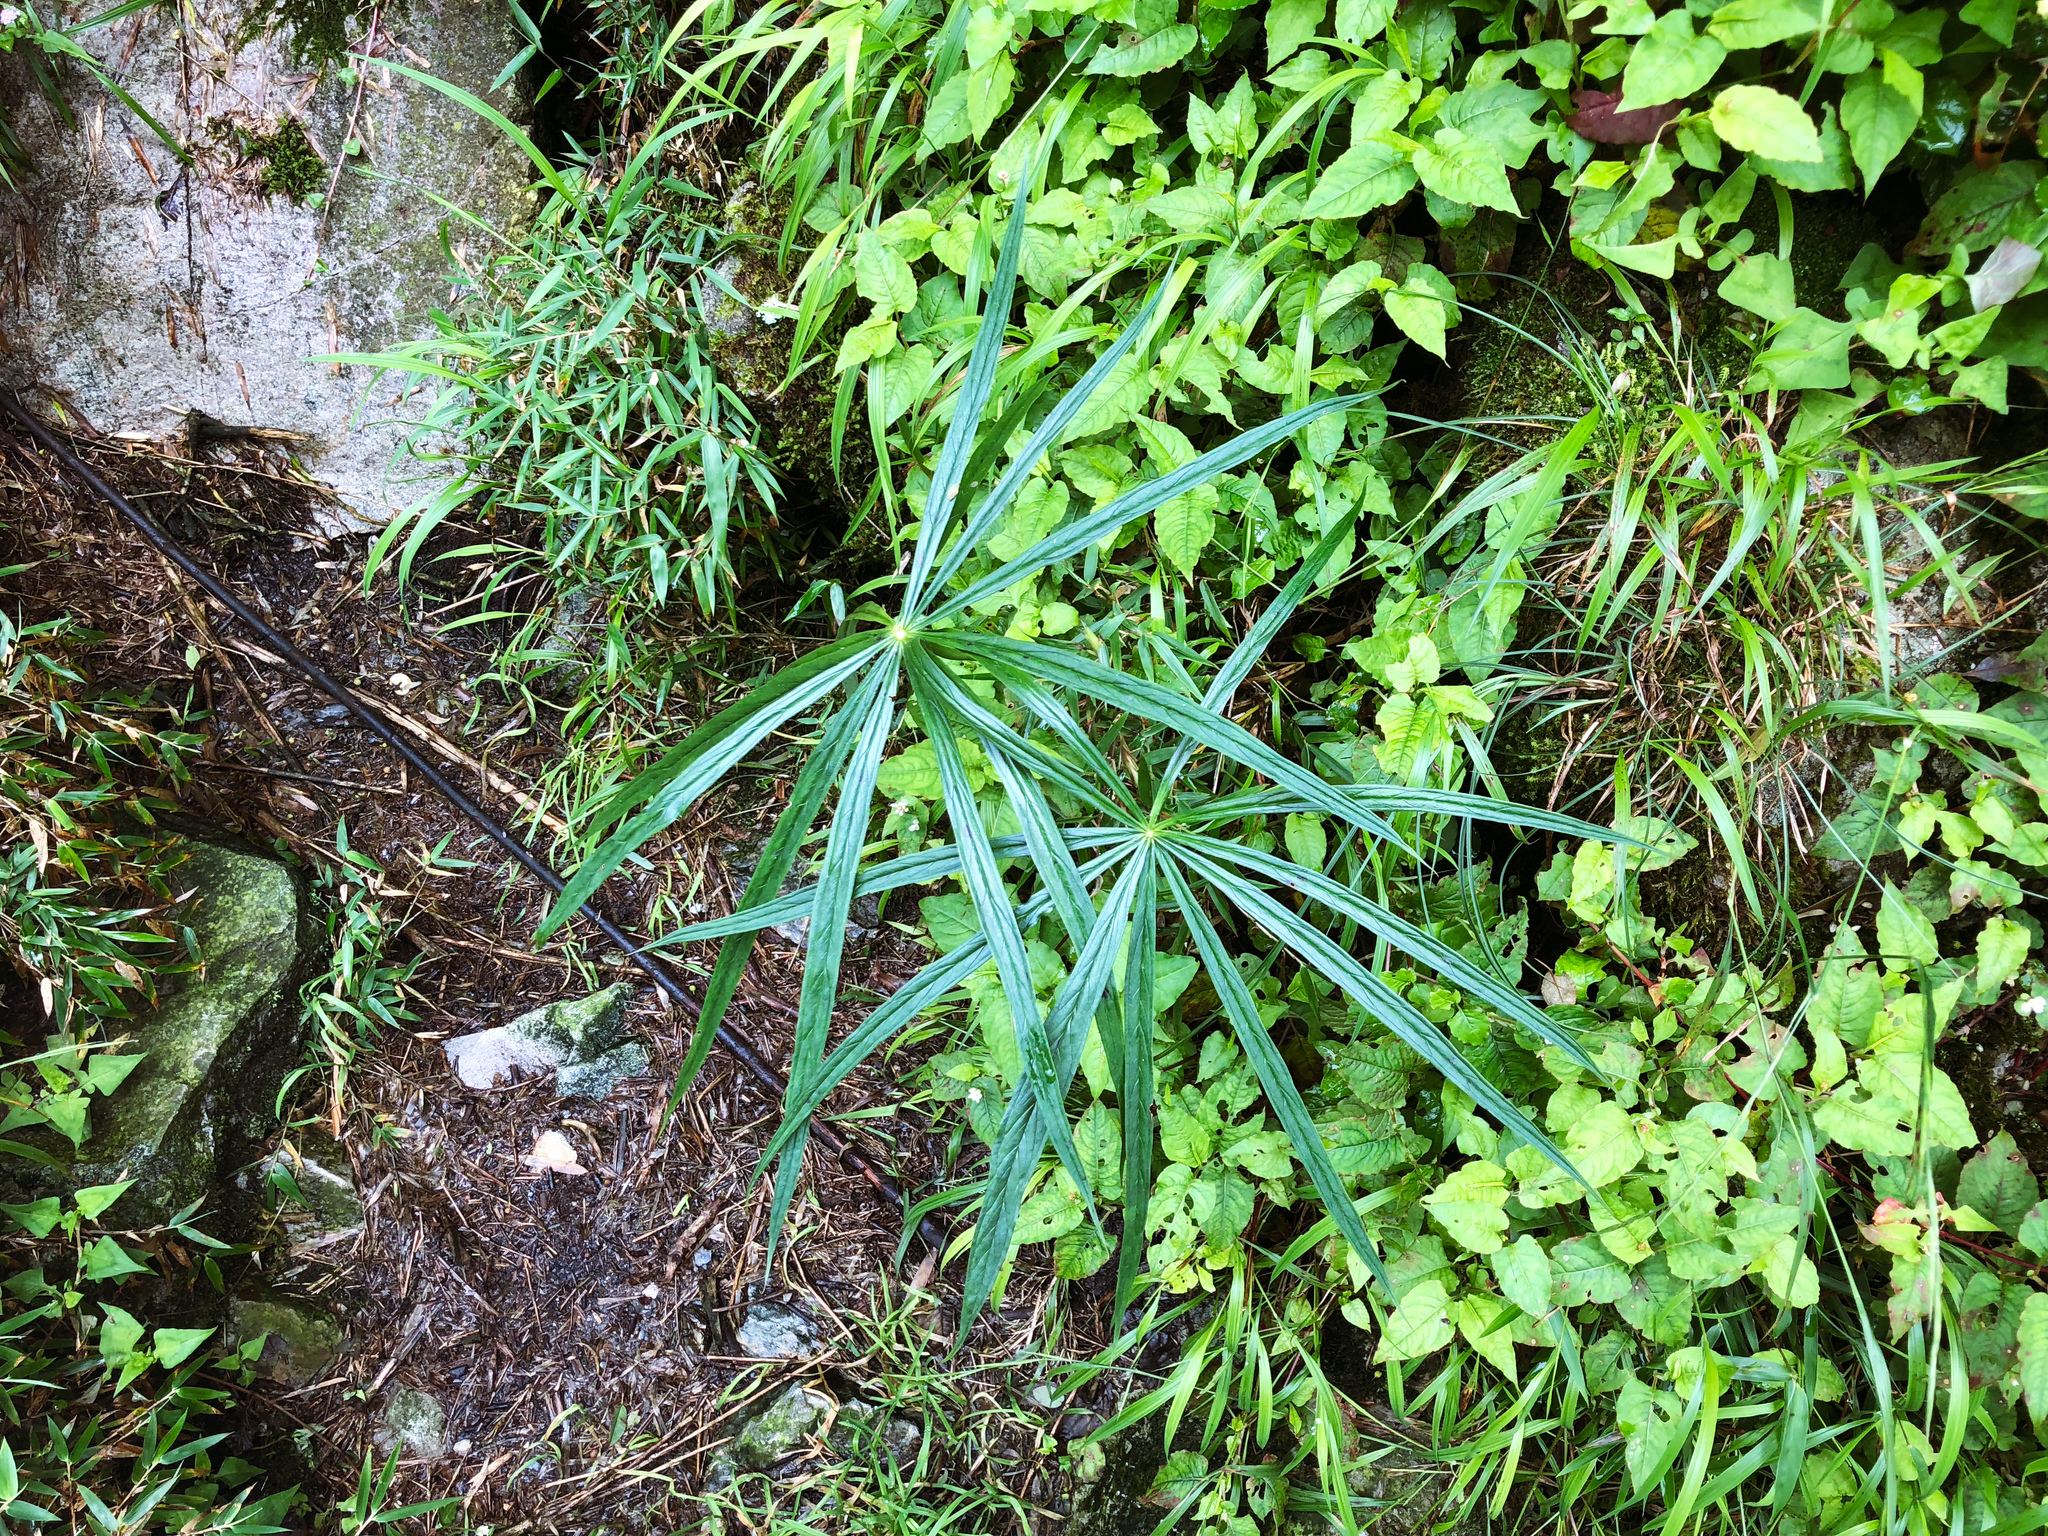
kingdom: Plantae
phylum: Tracheophyta
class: Liliopsida
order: Alismatales
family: Araceae
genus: Arisaema
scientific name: Arisaema consanguineum
